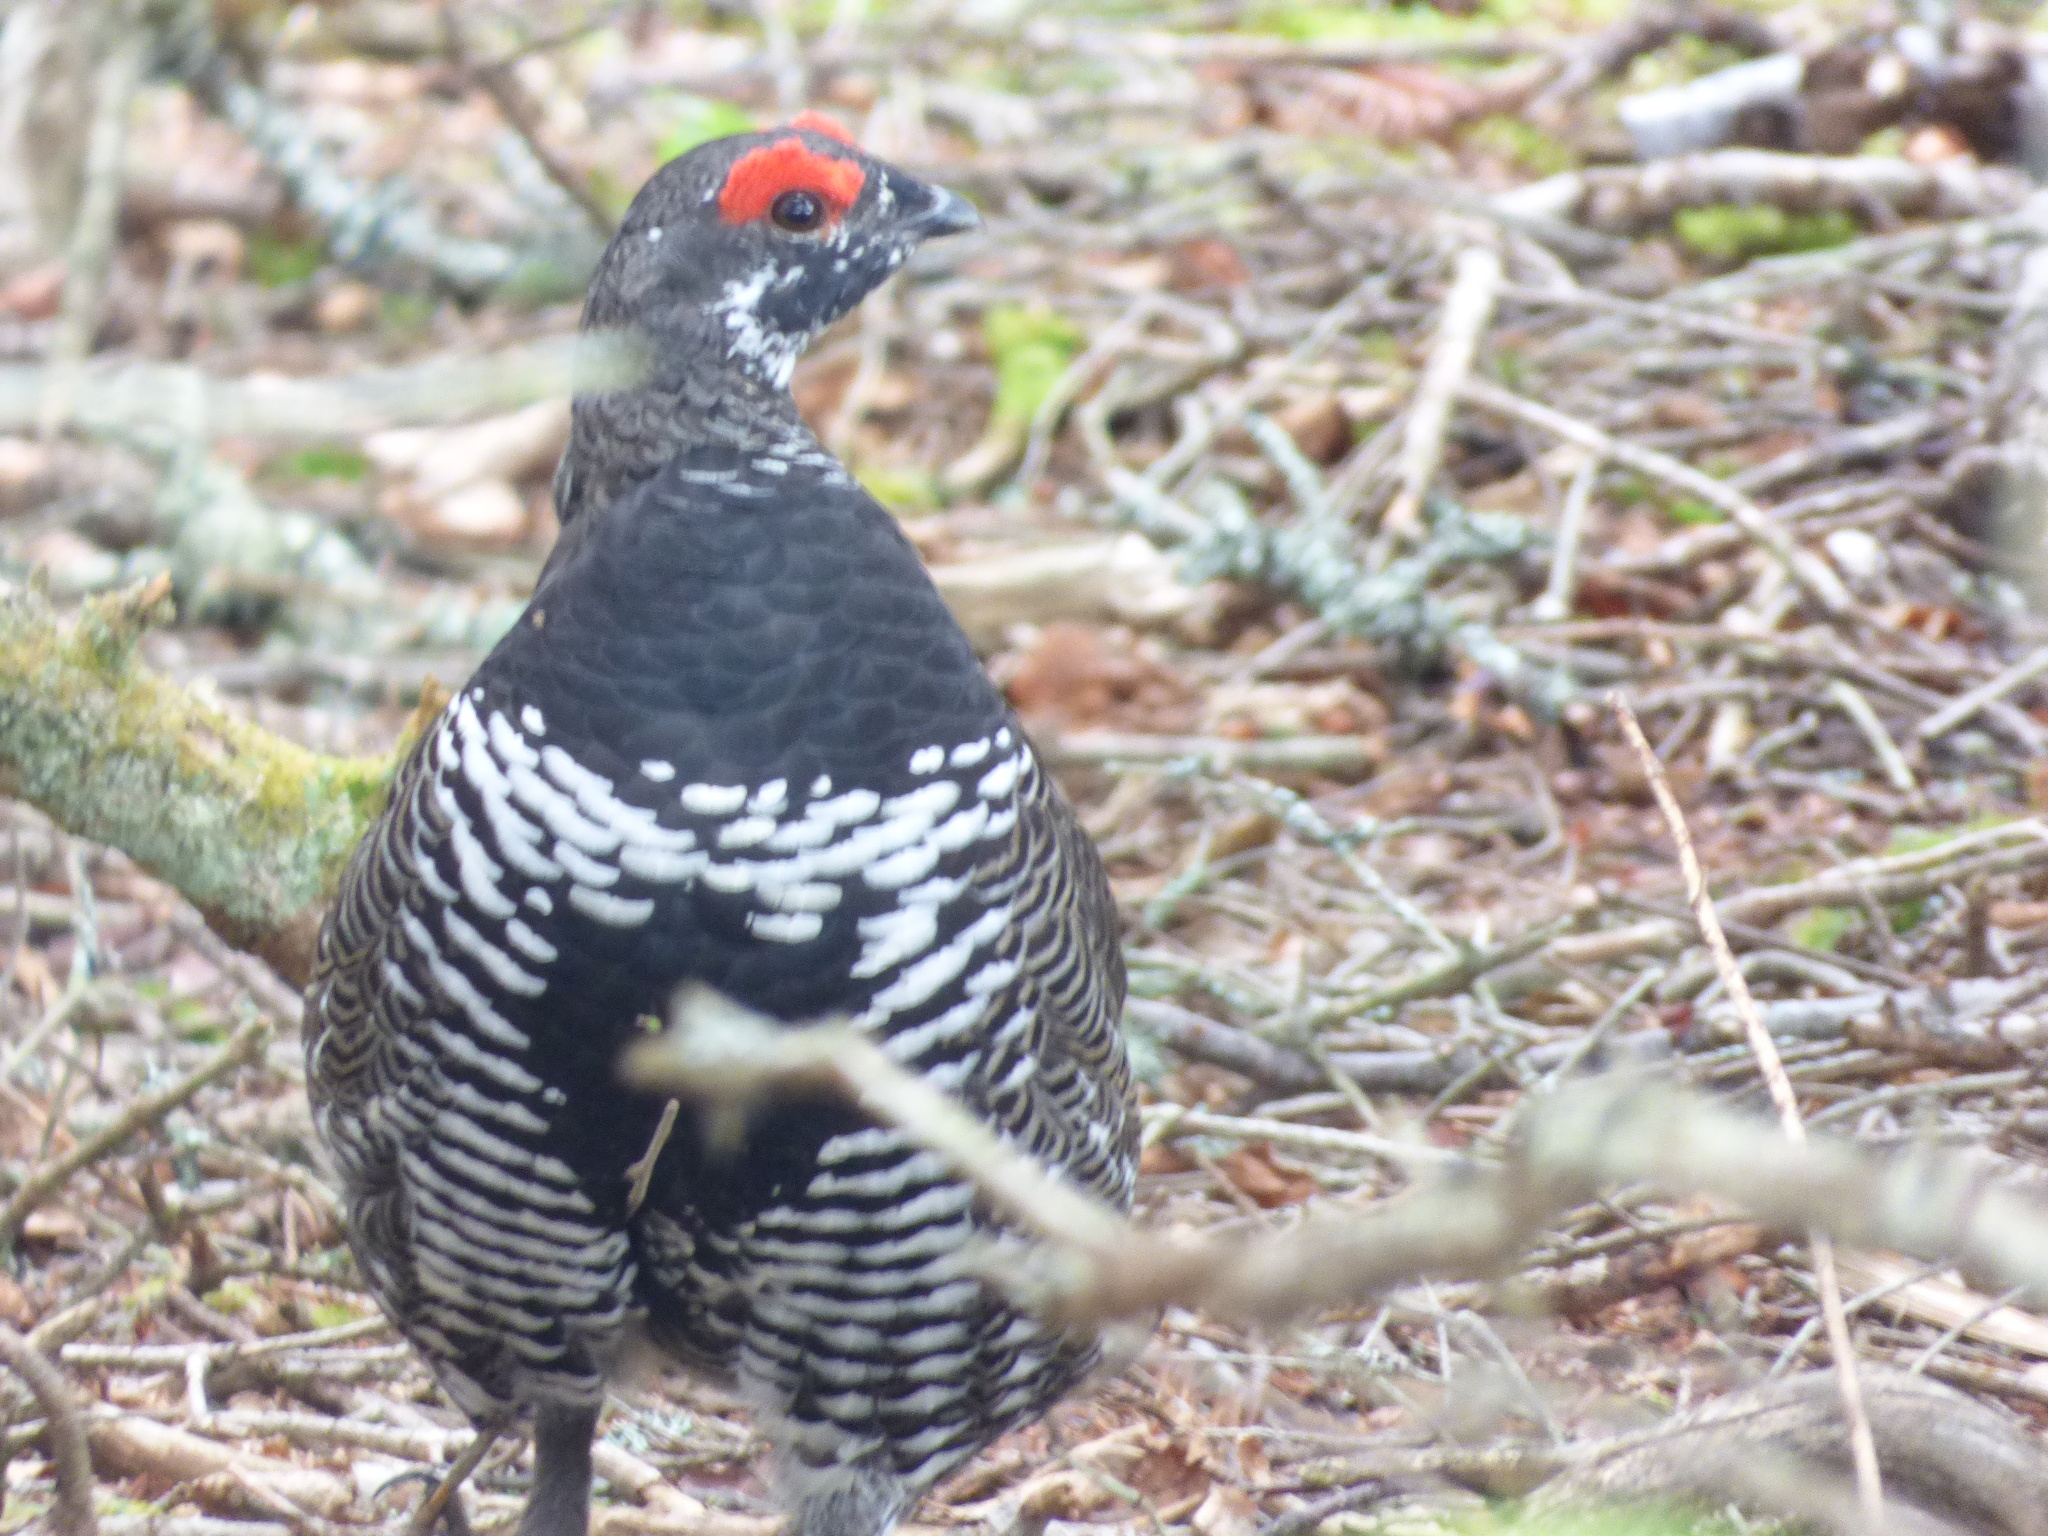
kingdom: Animalia
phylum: Chordata
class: Aves
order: Galliformes
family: Phasianidae
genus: Canachites
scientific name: Canachites canadensis
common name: Spruce grouse
